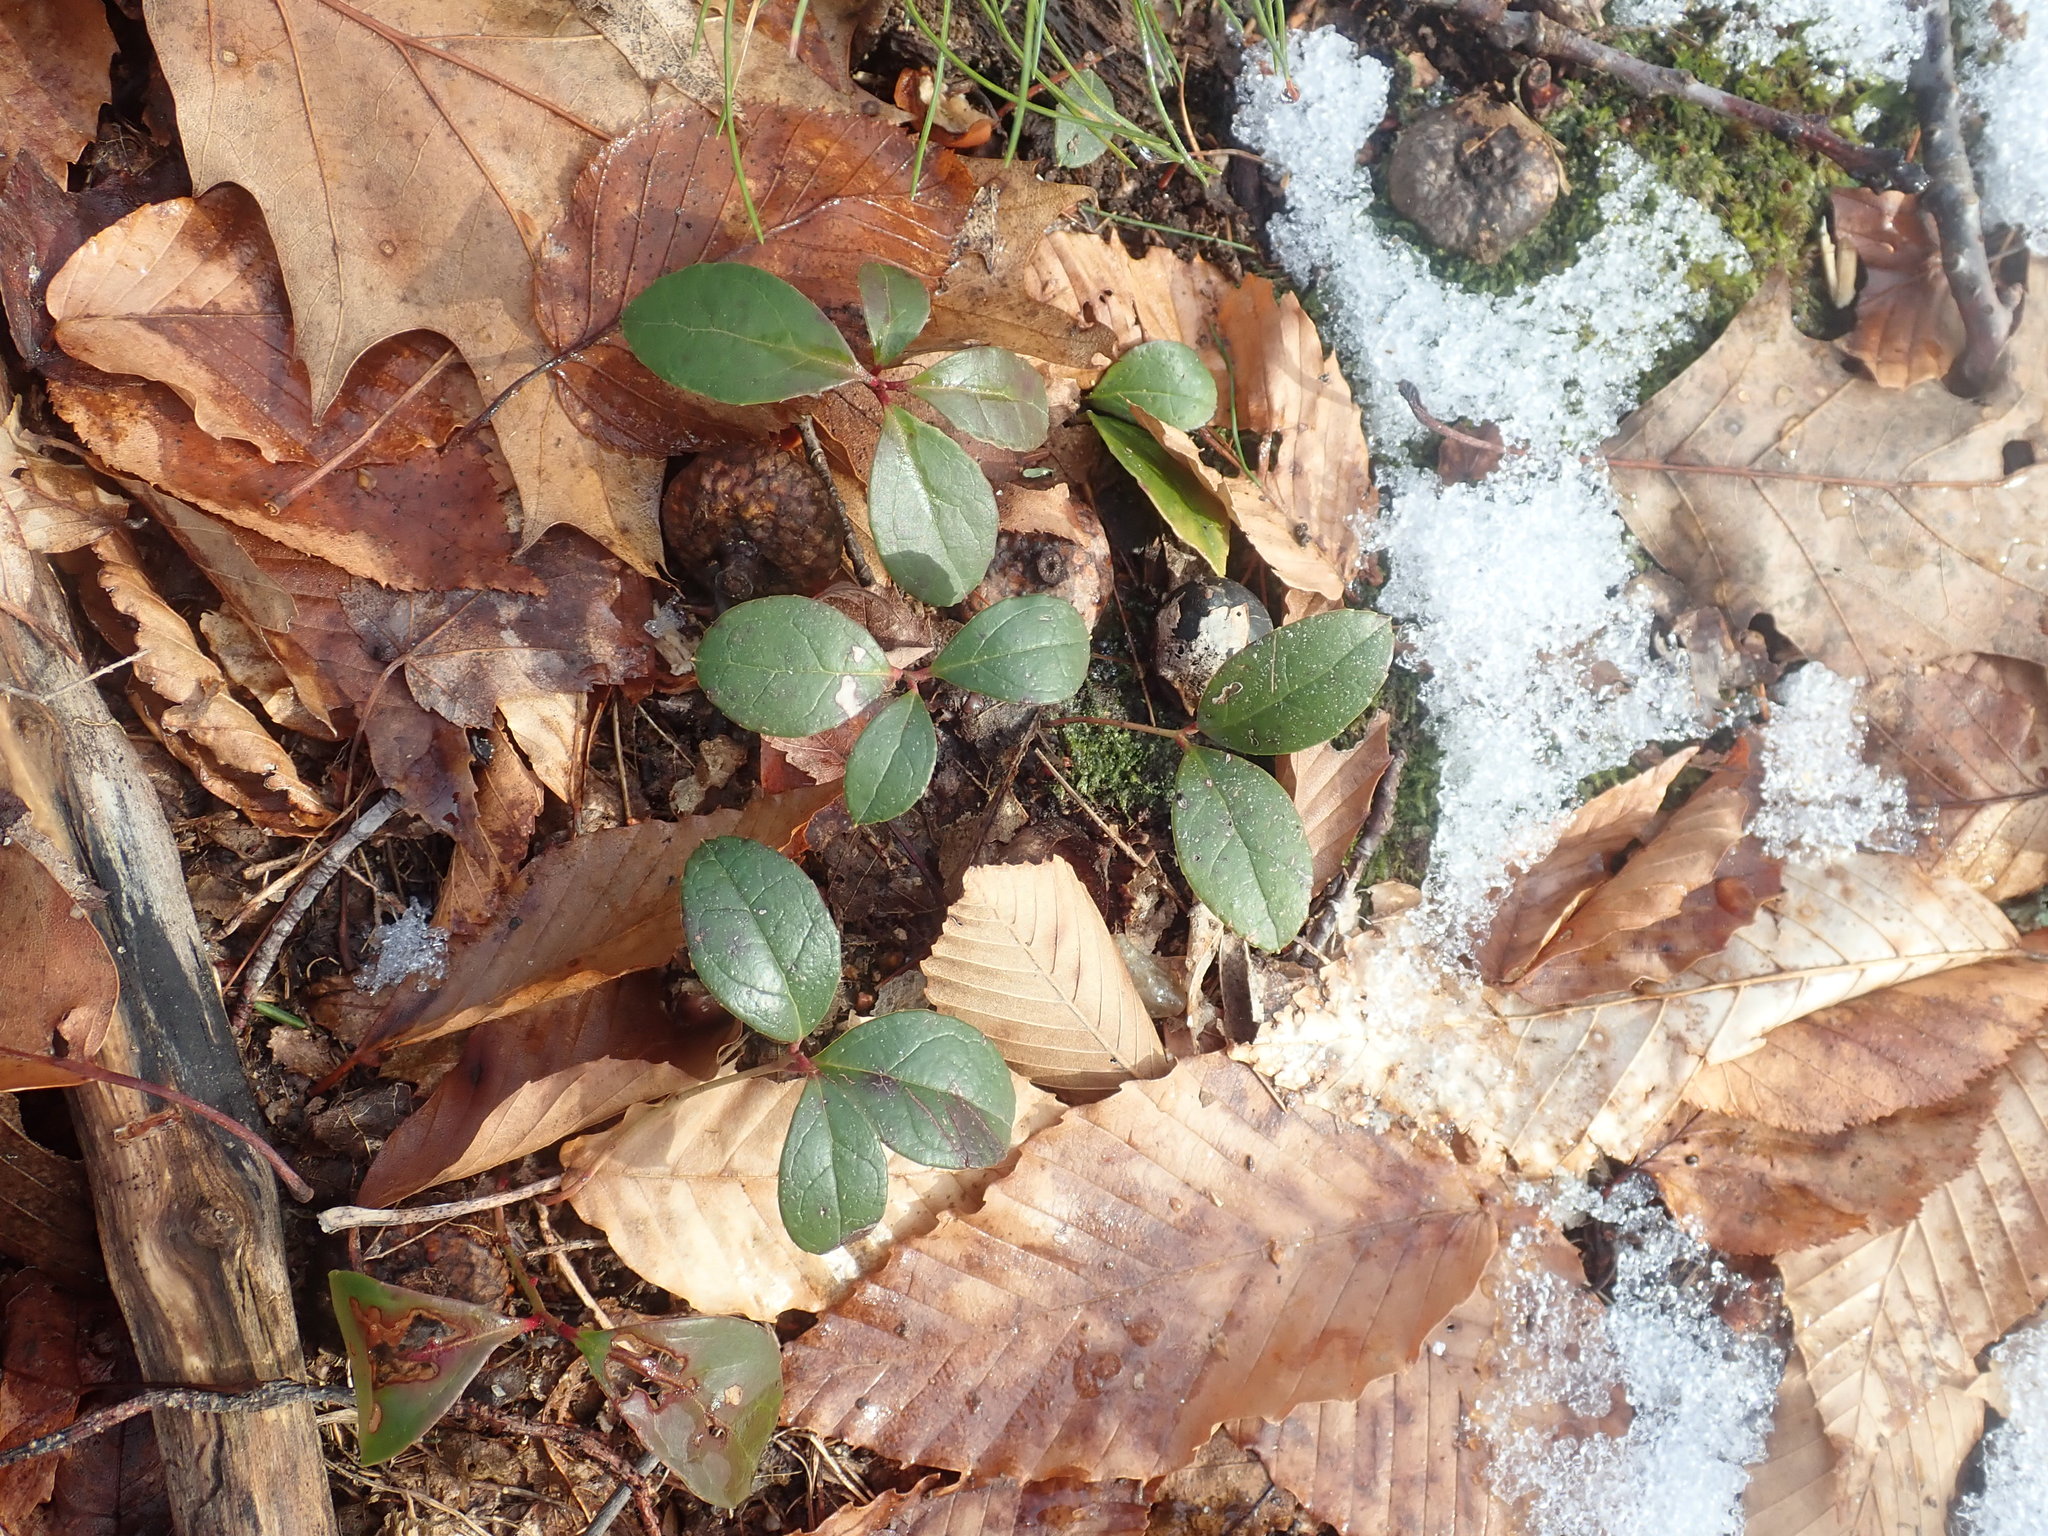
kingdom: Plantae
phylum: Tracheophyta
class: Magnoliopsida
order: Ericales
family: Ericaceae
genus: Gaultheria
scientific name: Gaultheria procumbens
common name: Checkerberry
